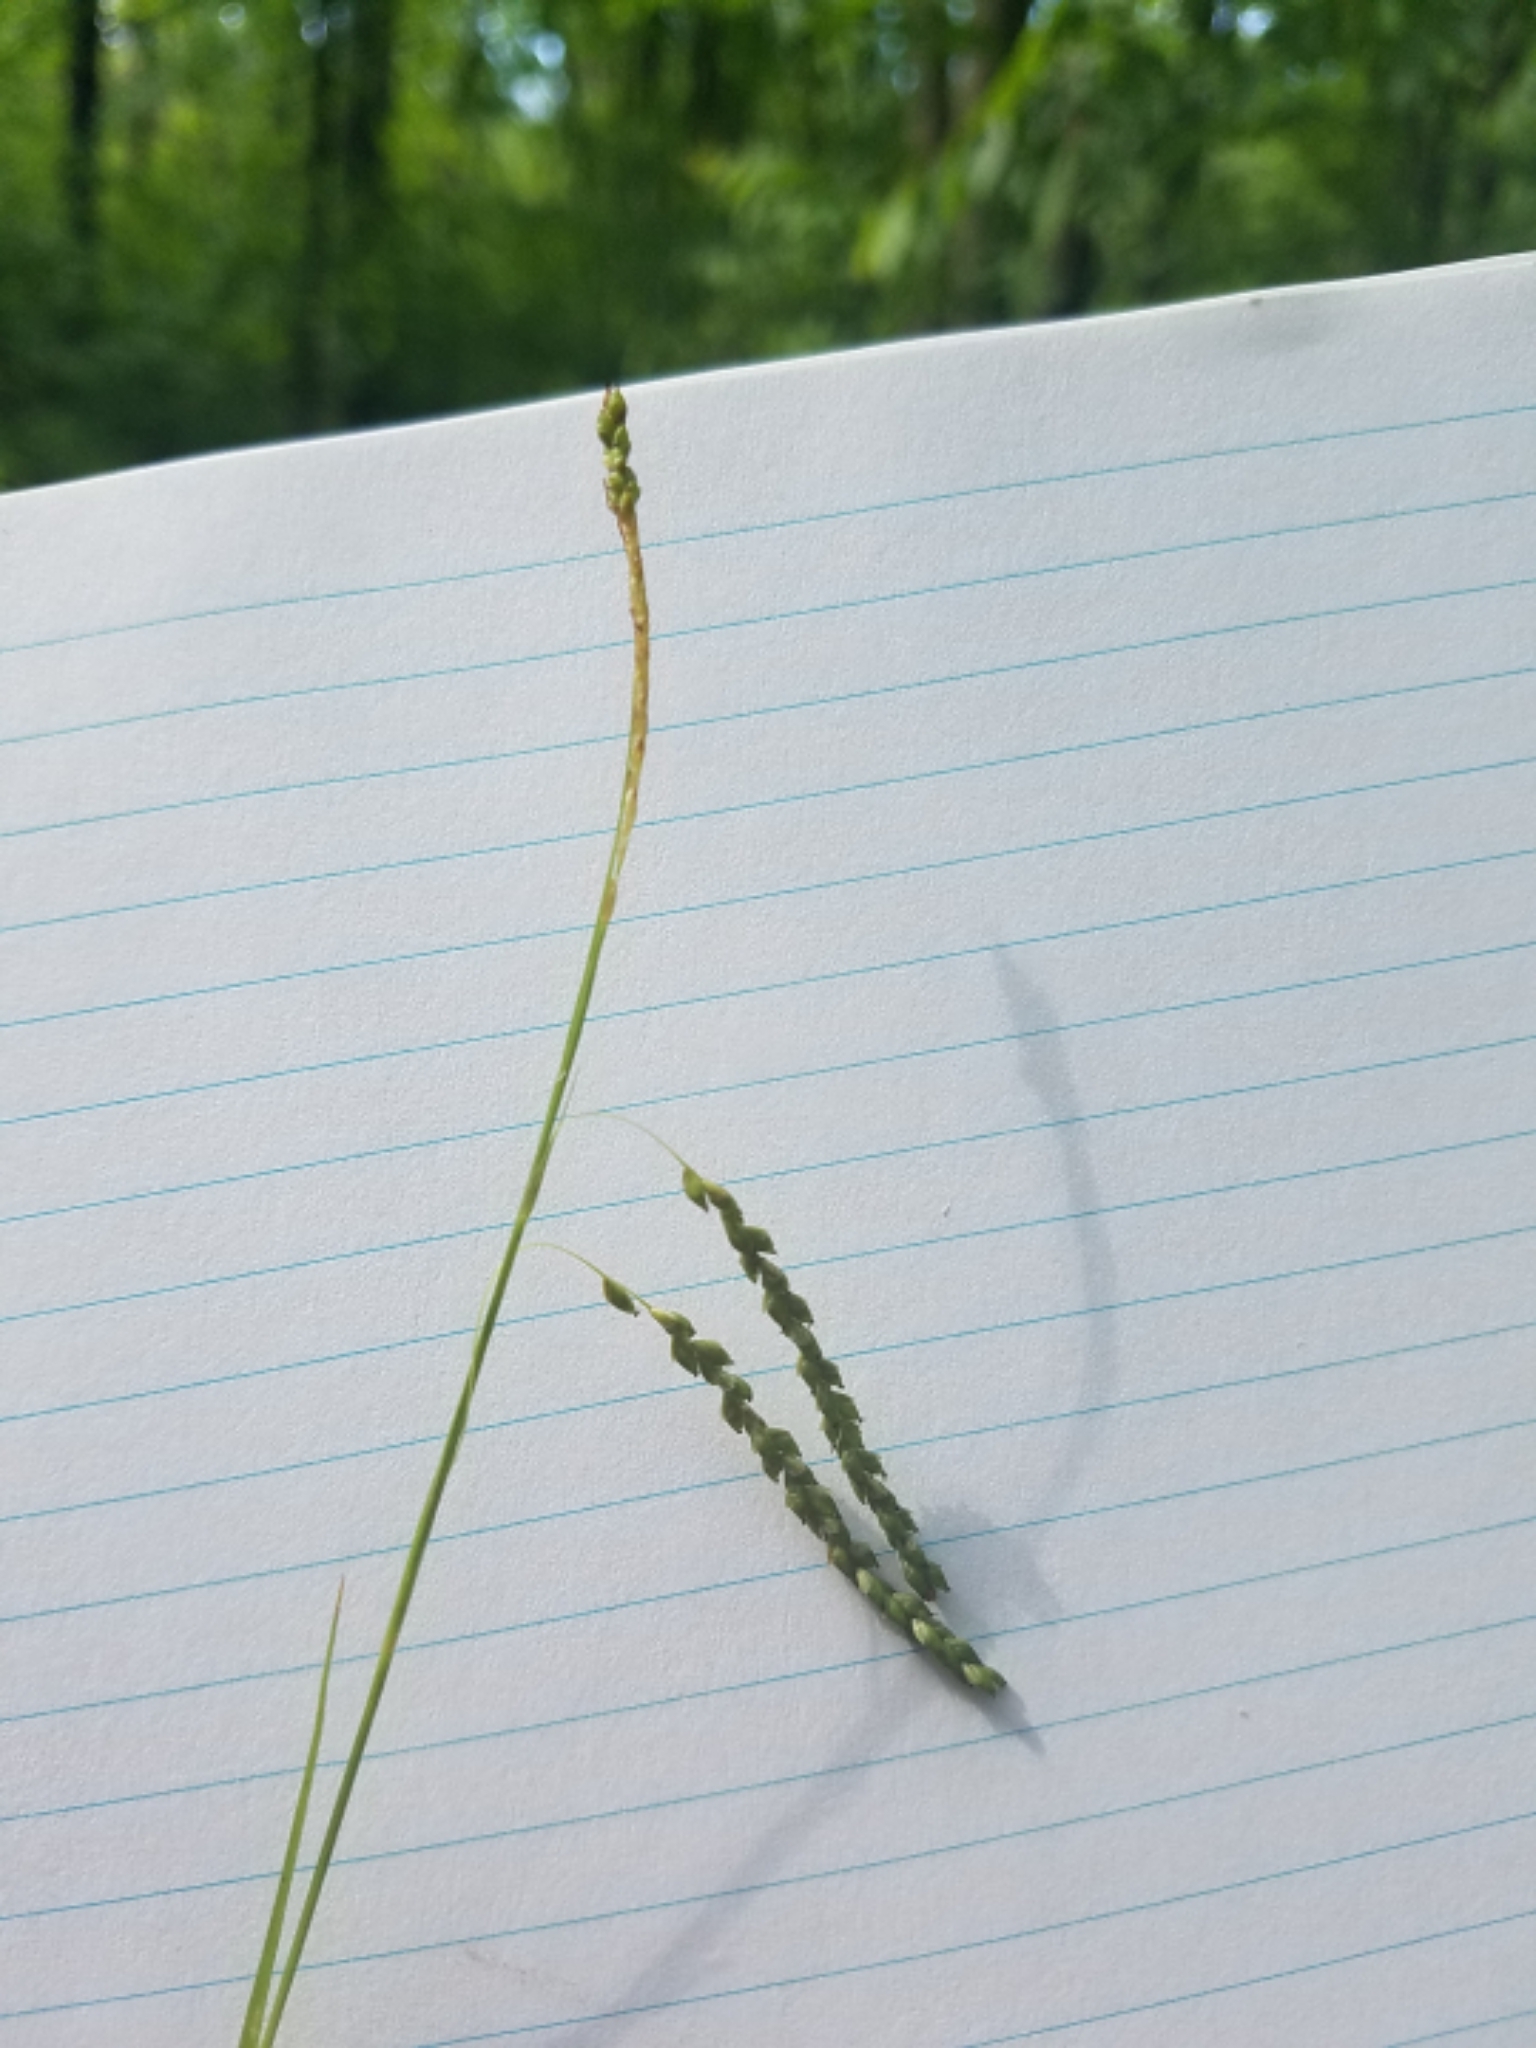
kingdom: Plantae
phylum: Tracheophyta
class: Liliopsida
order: Poales
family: Cyperaceae
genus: Carex
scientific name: Carex gracillima
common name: Graceful sedge
